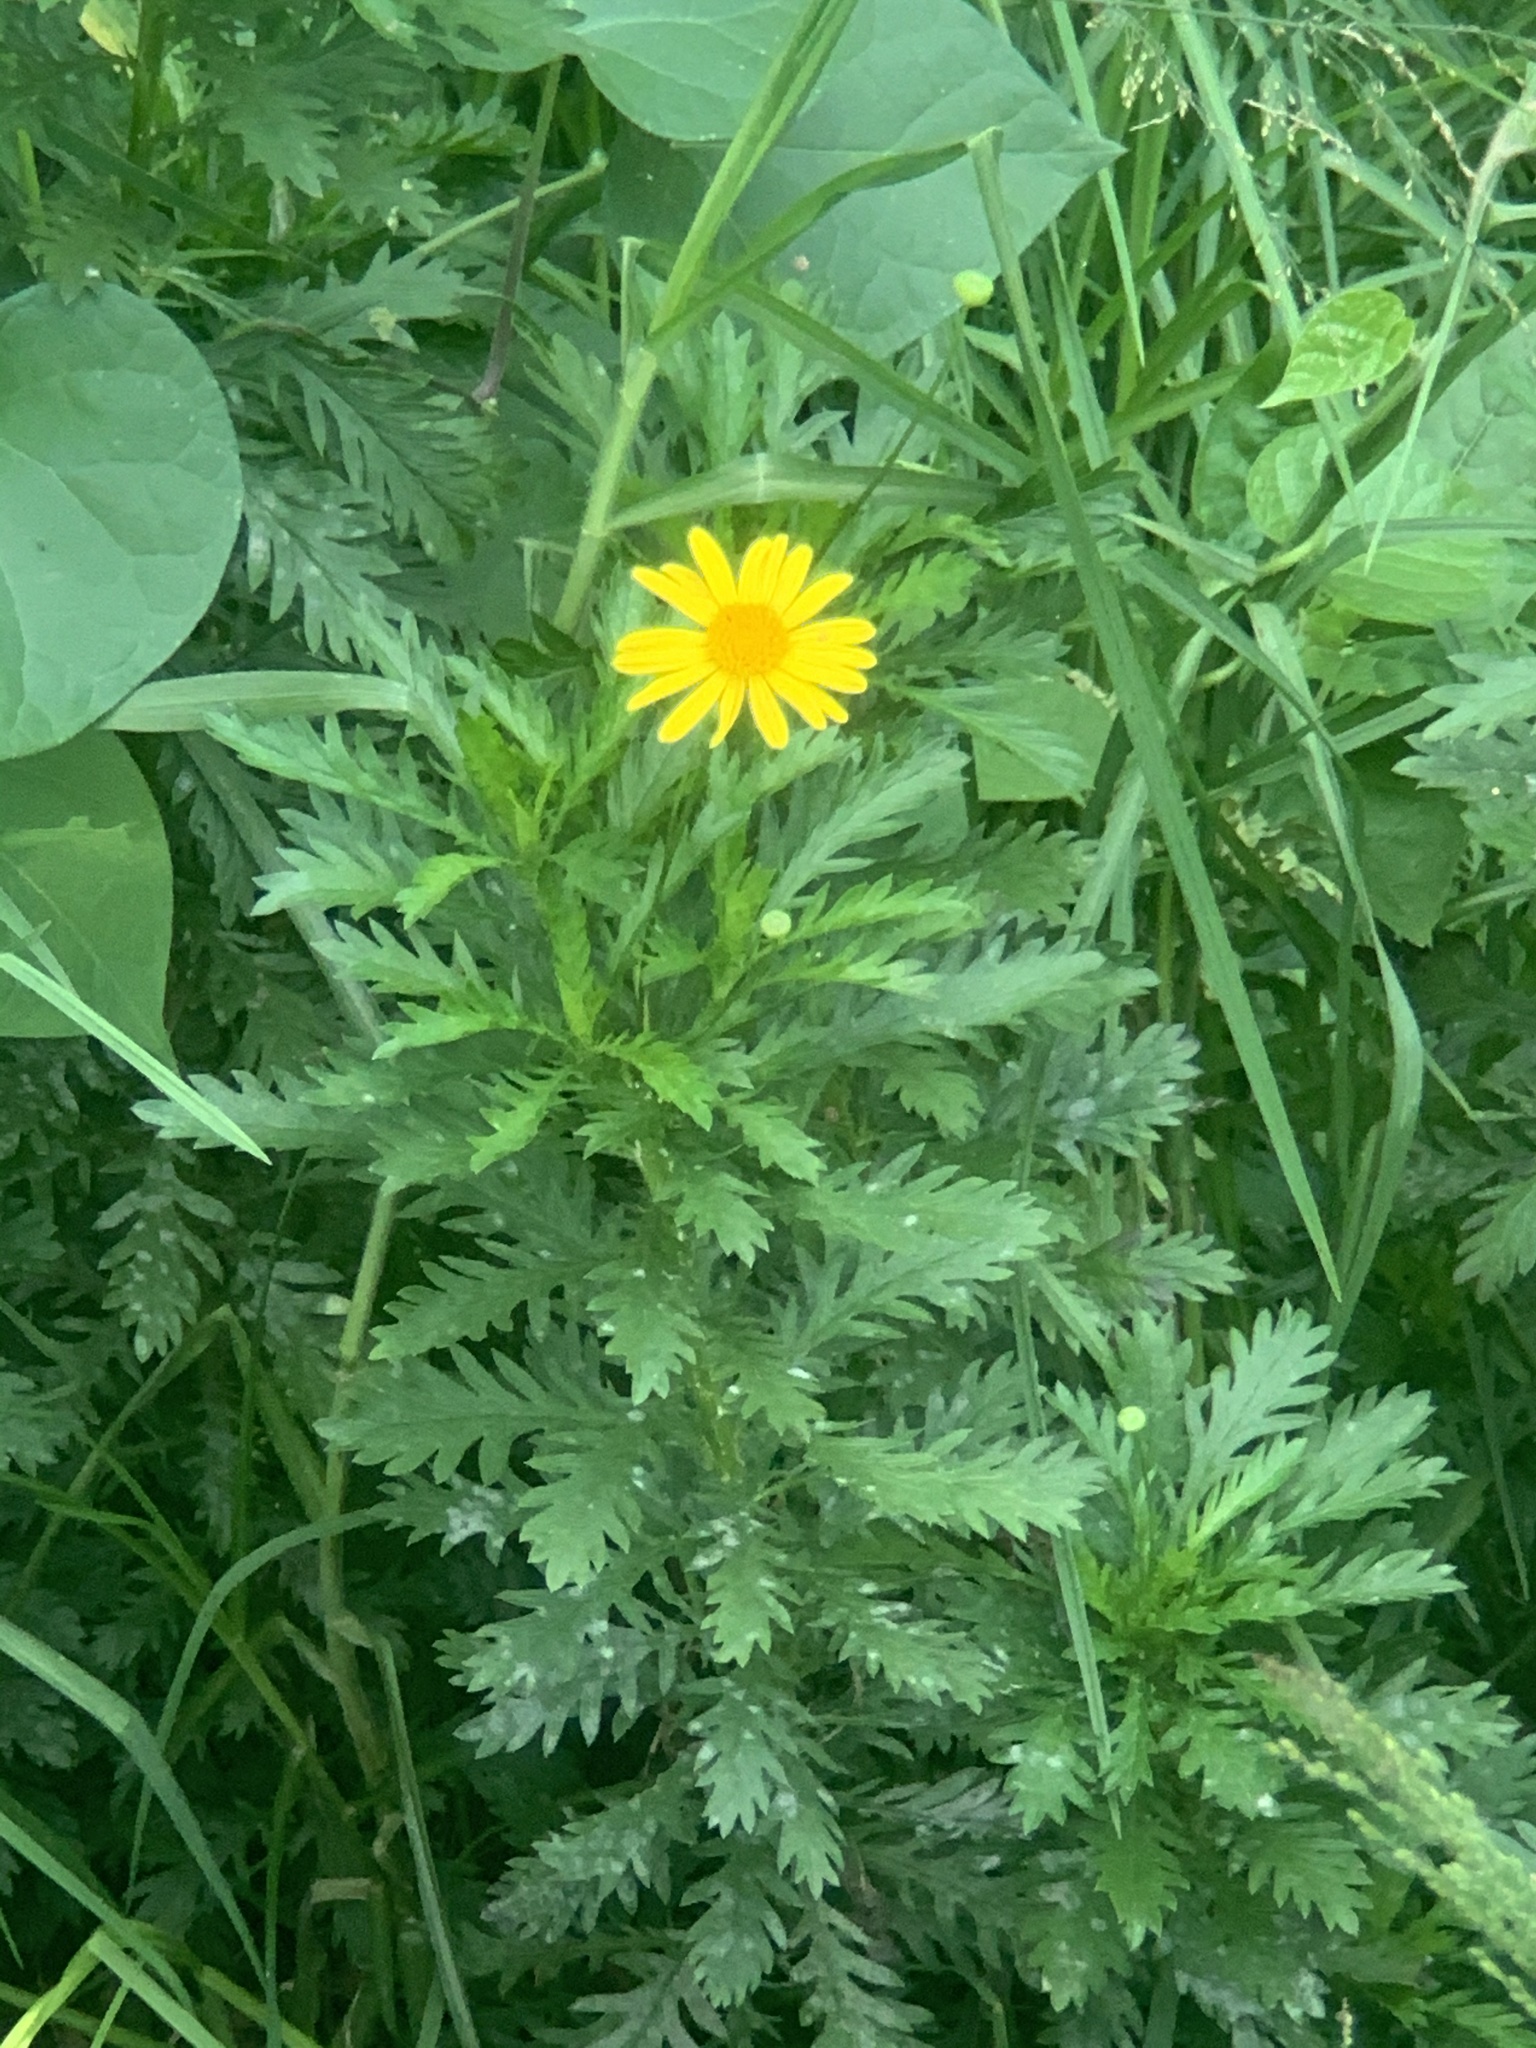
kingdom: Plantae
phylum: Tracheophyta
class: Magnoliopsida
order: Asterales
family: Asteraceae
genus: Euryops
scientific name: Euryops chrysanthemoides
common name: Bull's eye
